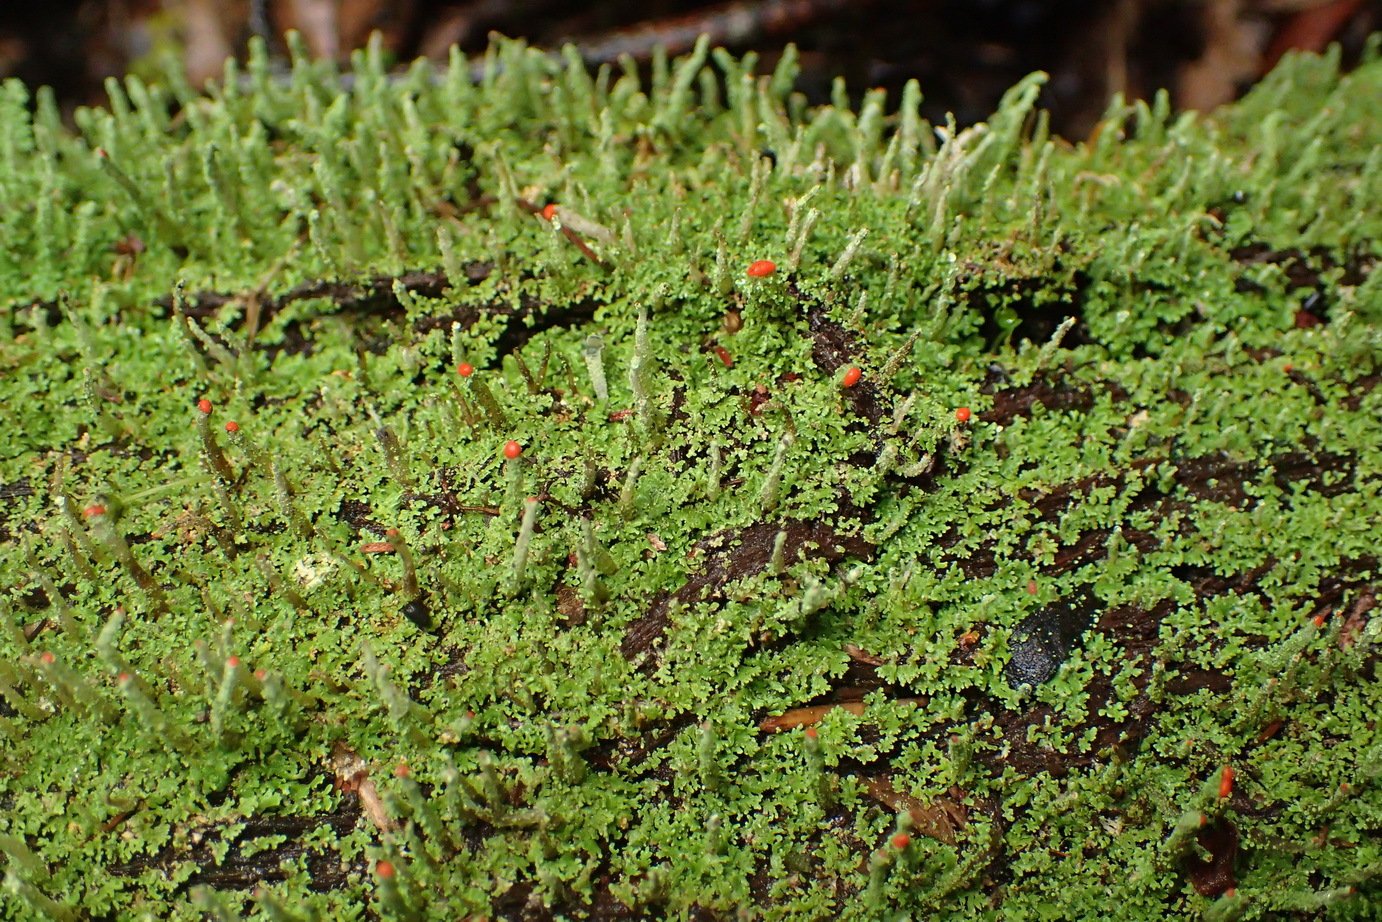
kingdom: Fungi
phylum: Ascomycota
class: Lecanoromycetes
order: Lecanorales
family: Cladoniaceae
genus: Cladonia
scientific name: Cladonia didyma
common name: Southern soldiers
